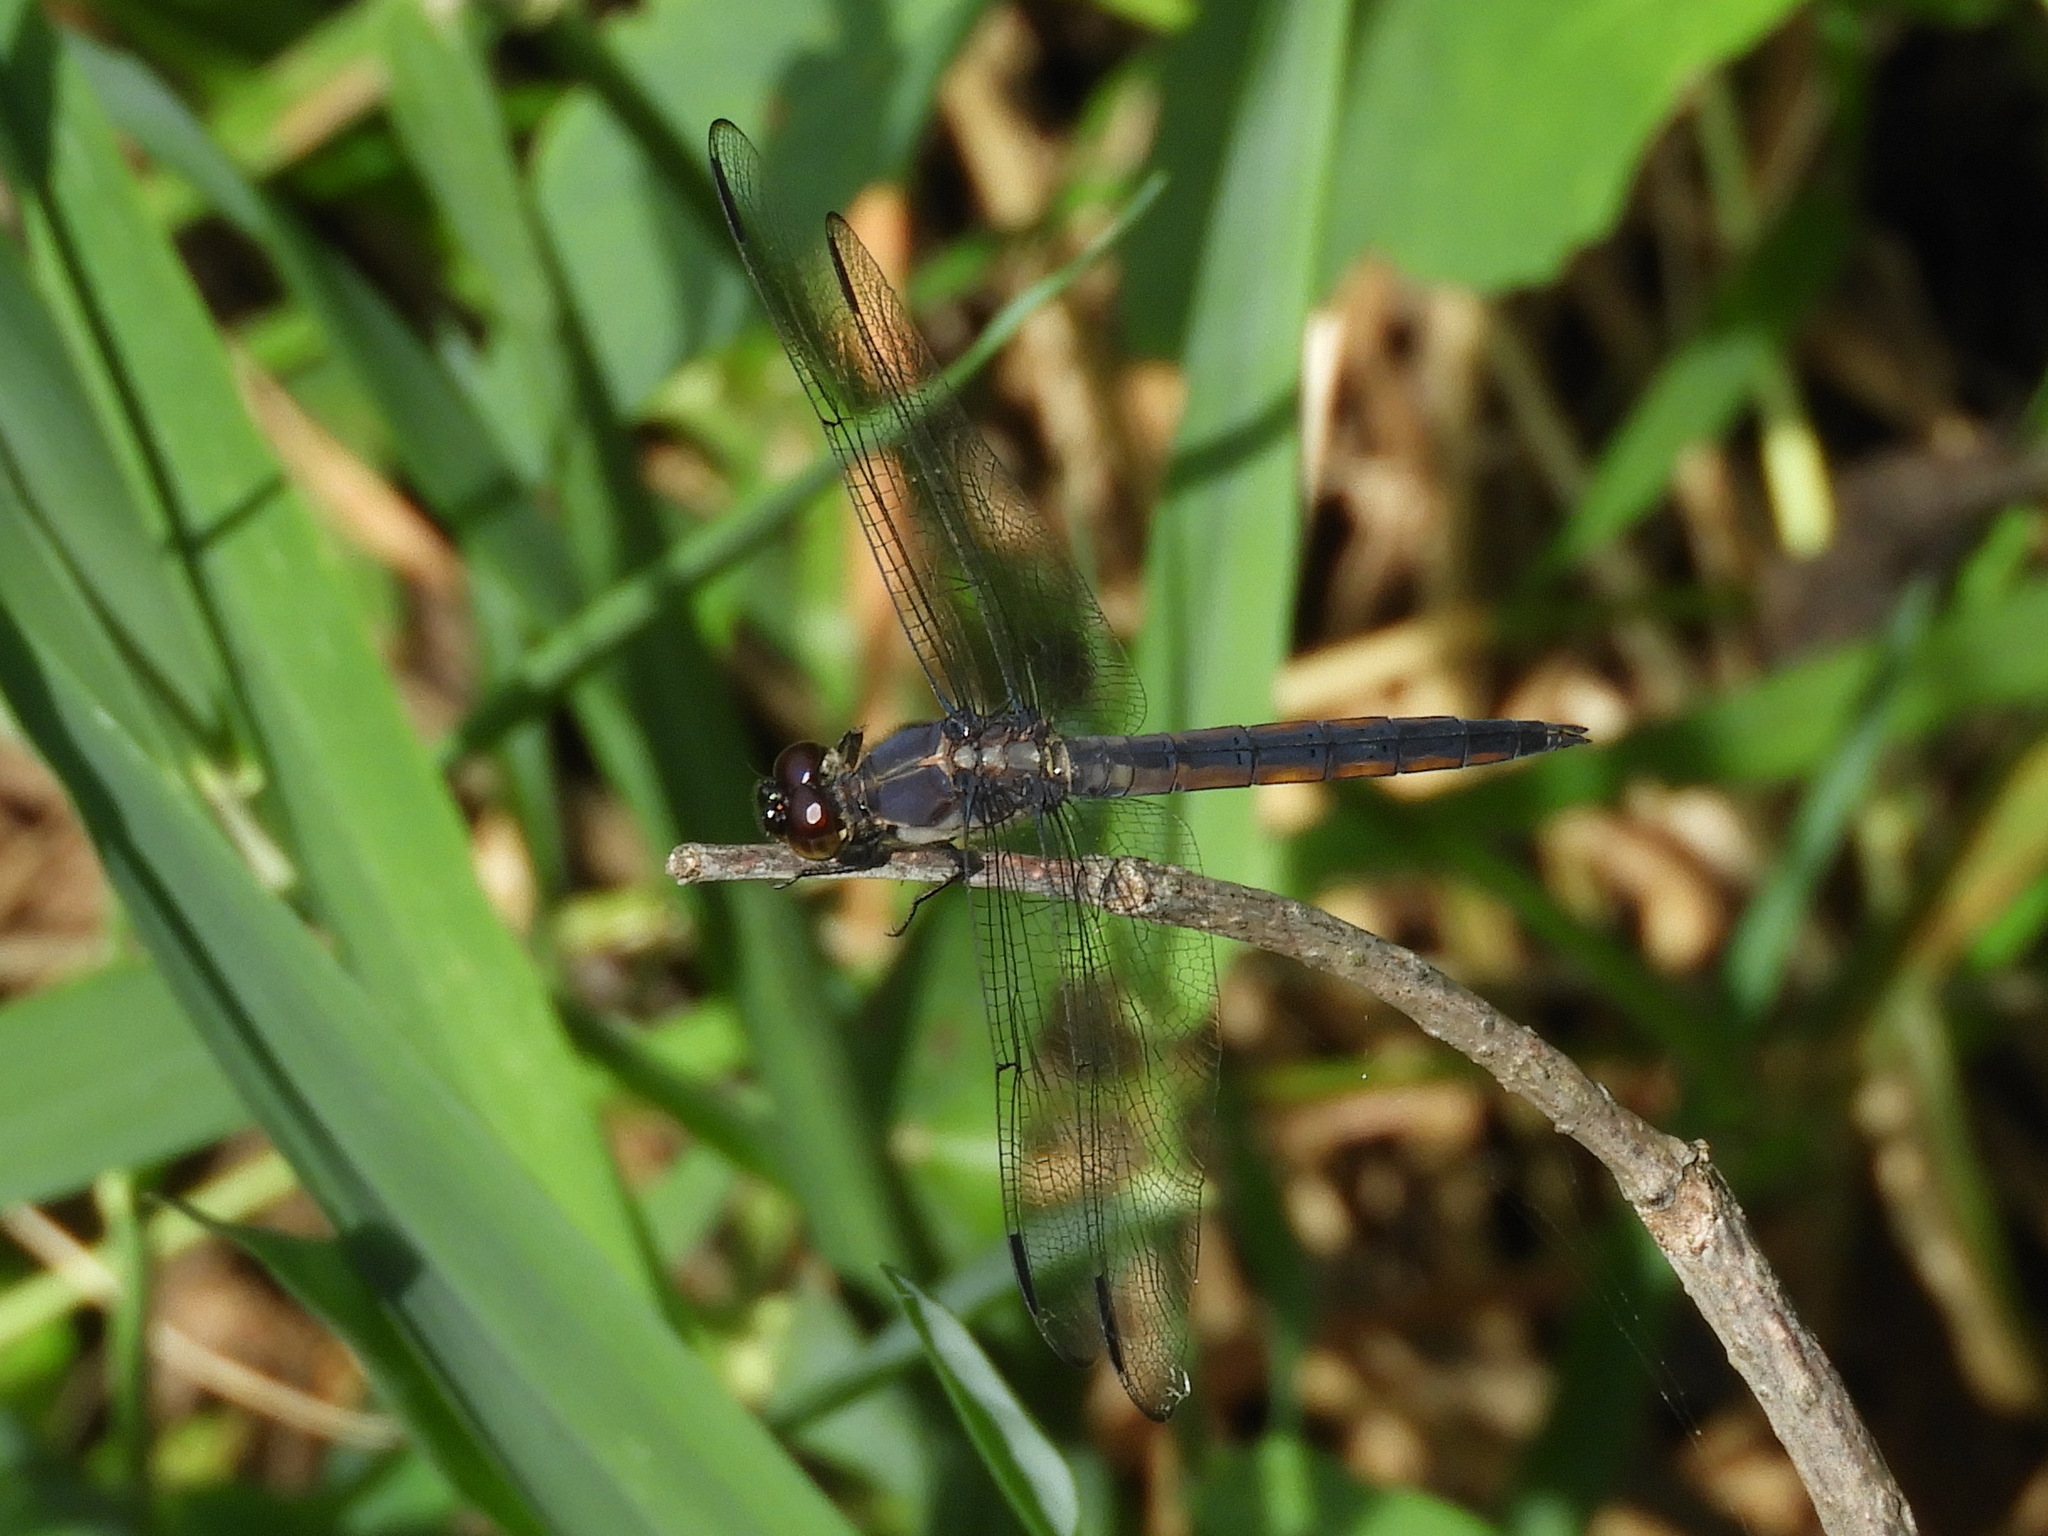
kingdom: Animalia
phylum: Arthropoda
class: Insecta
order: Odonata
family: Libellulidae
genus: Libellula
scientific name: Libellula incesta
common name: Slaty skimmer
